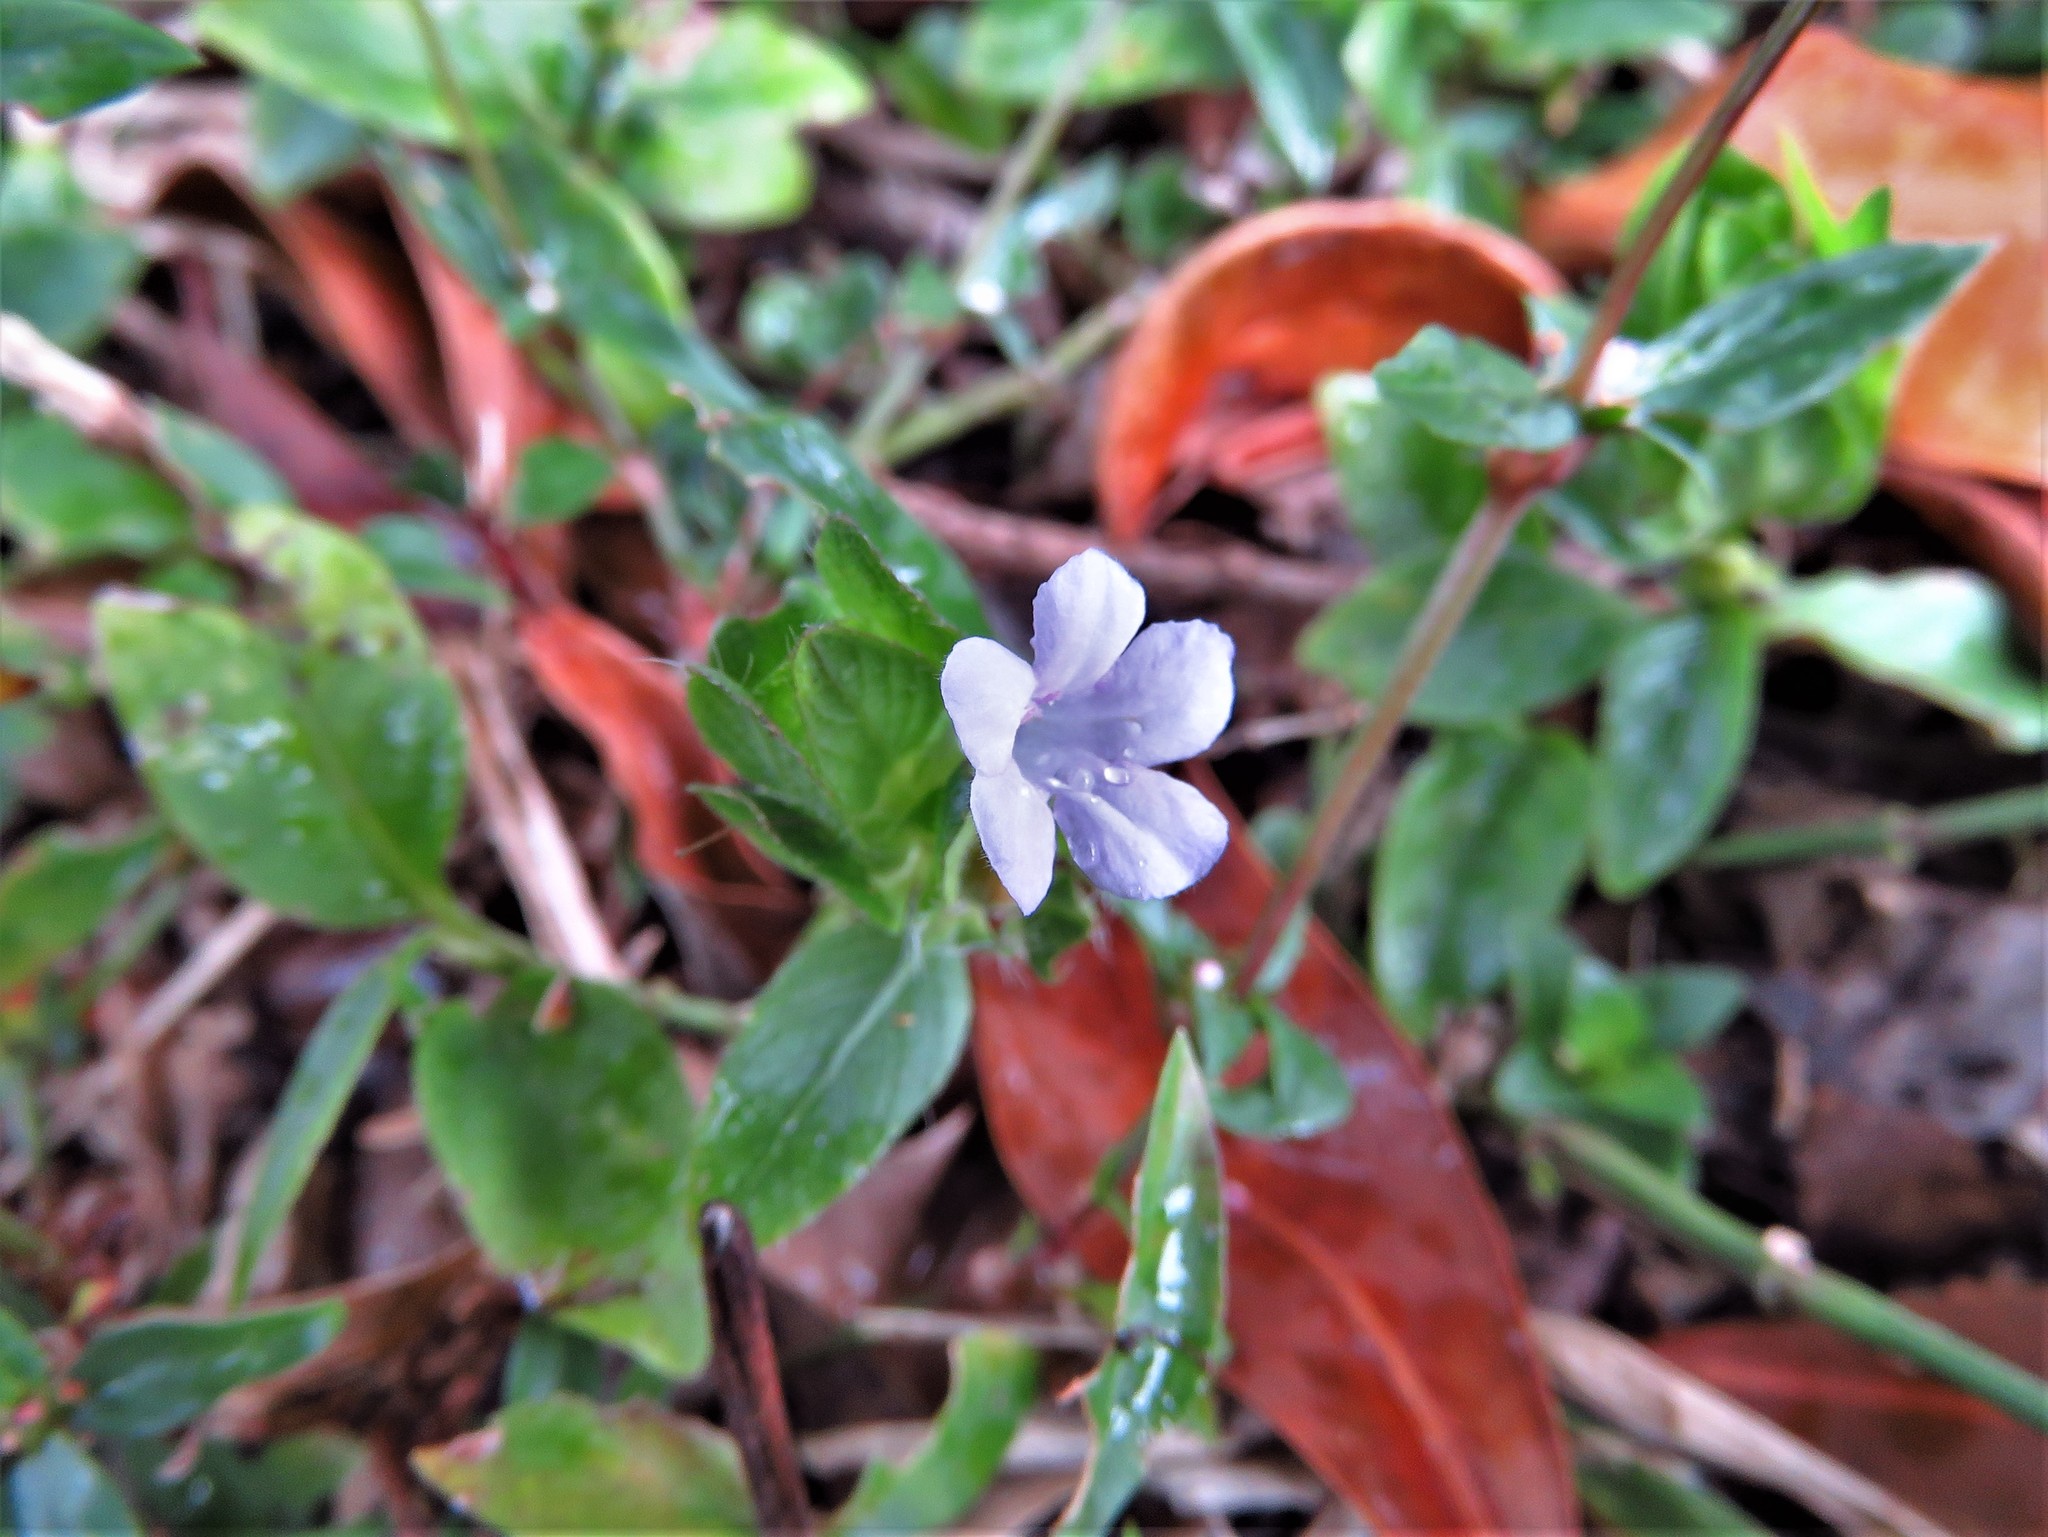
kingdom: Plantae
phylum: Tracheophyta
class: Magnoliopsida
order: Lamiales
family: Acanthaceae
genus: Ruellia
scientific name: Ruellia blechum
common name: Browne's blechum
